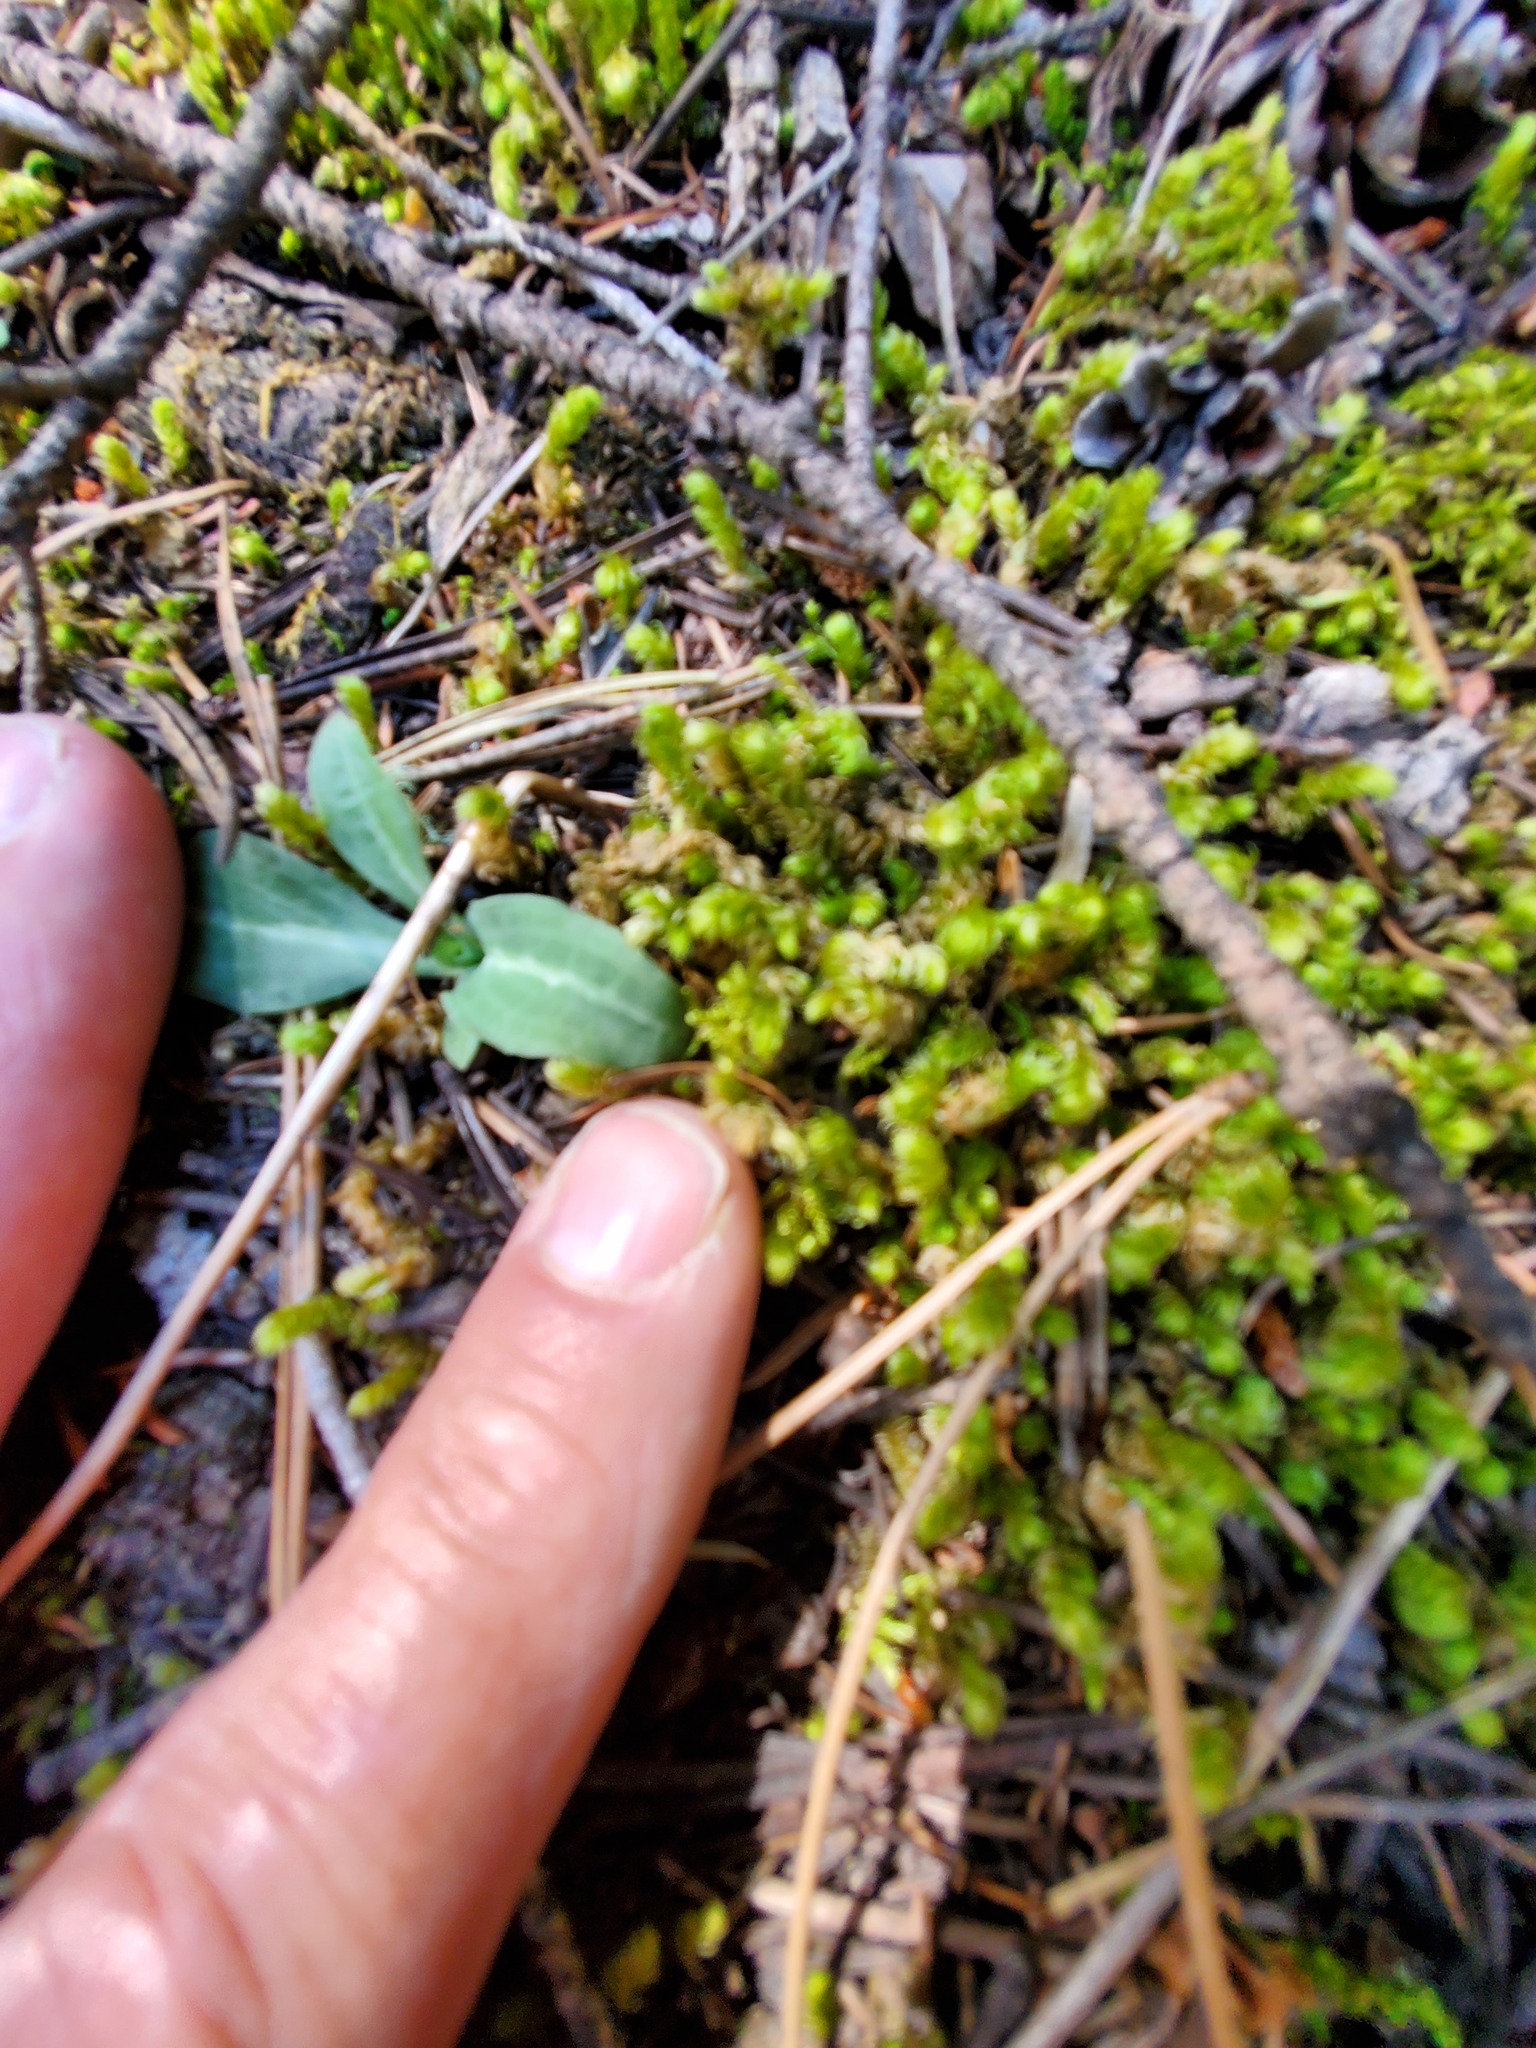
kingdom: Plantae
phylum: Tracheophyta
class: Liliopsida
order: Asparagales
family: Orchidaceae
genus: Goodyera
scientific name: Goodyera oblongifolia
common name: Giant rattlesnake-plantain
